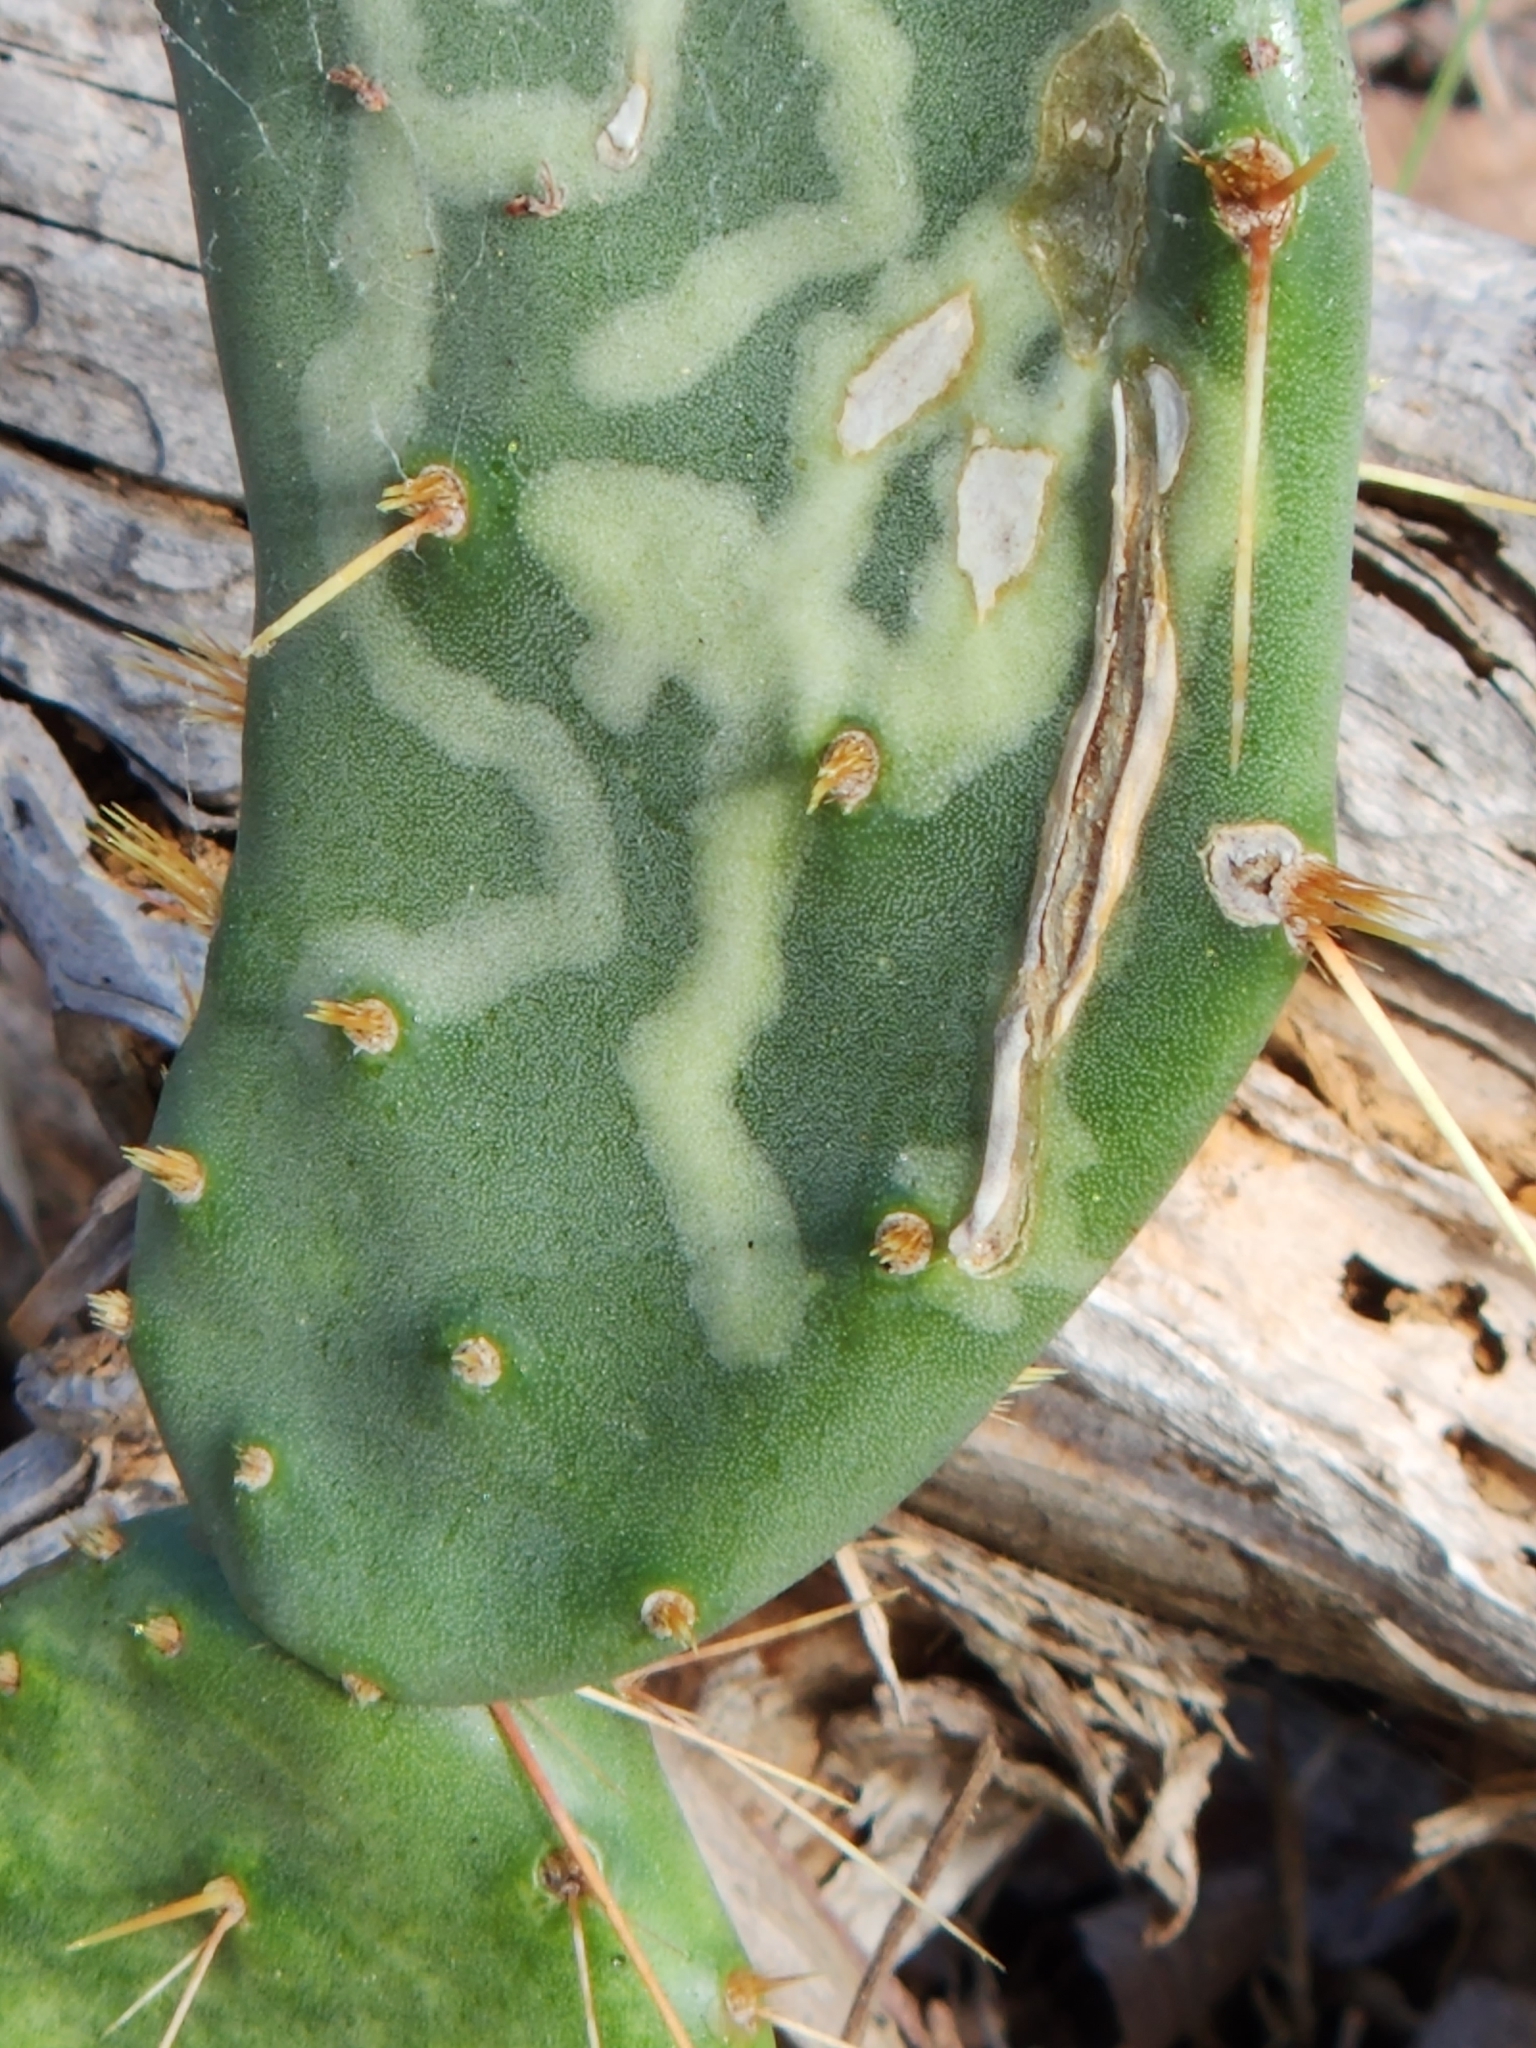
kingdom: Animalia
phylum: Arthropoda
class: Insecta
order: Lepidoptera
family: Gracillariidae
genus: Marmara
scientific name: Marmara opuntiella
